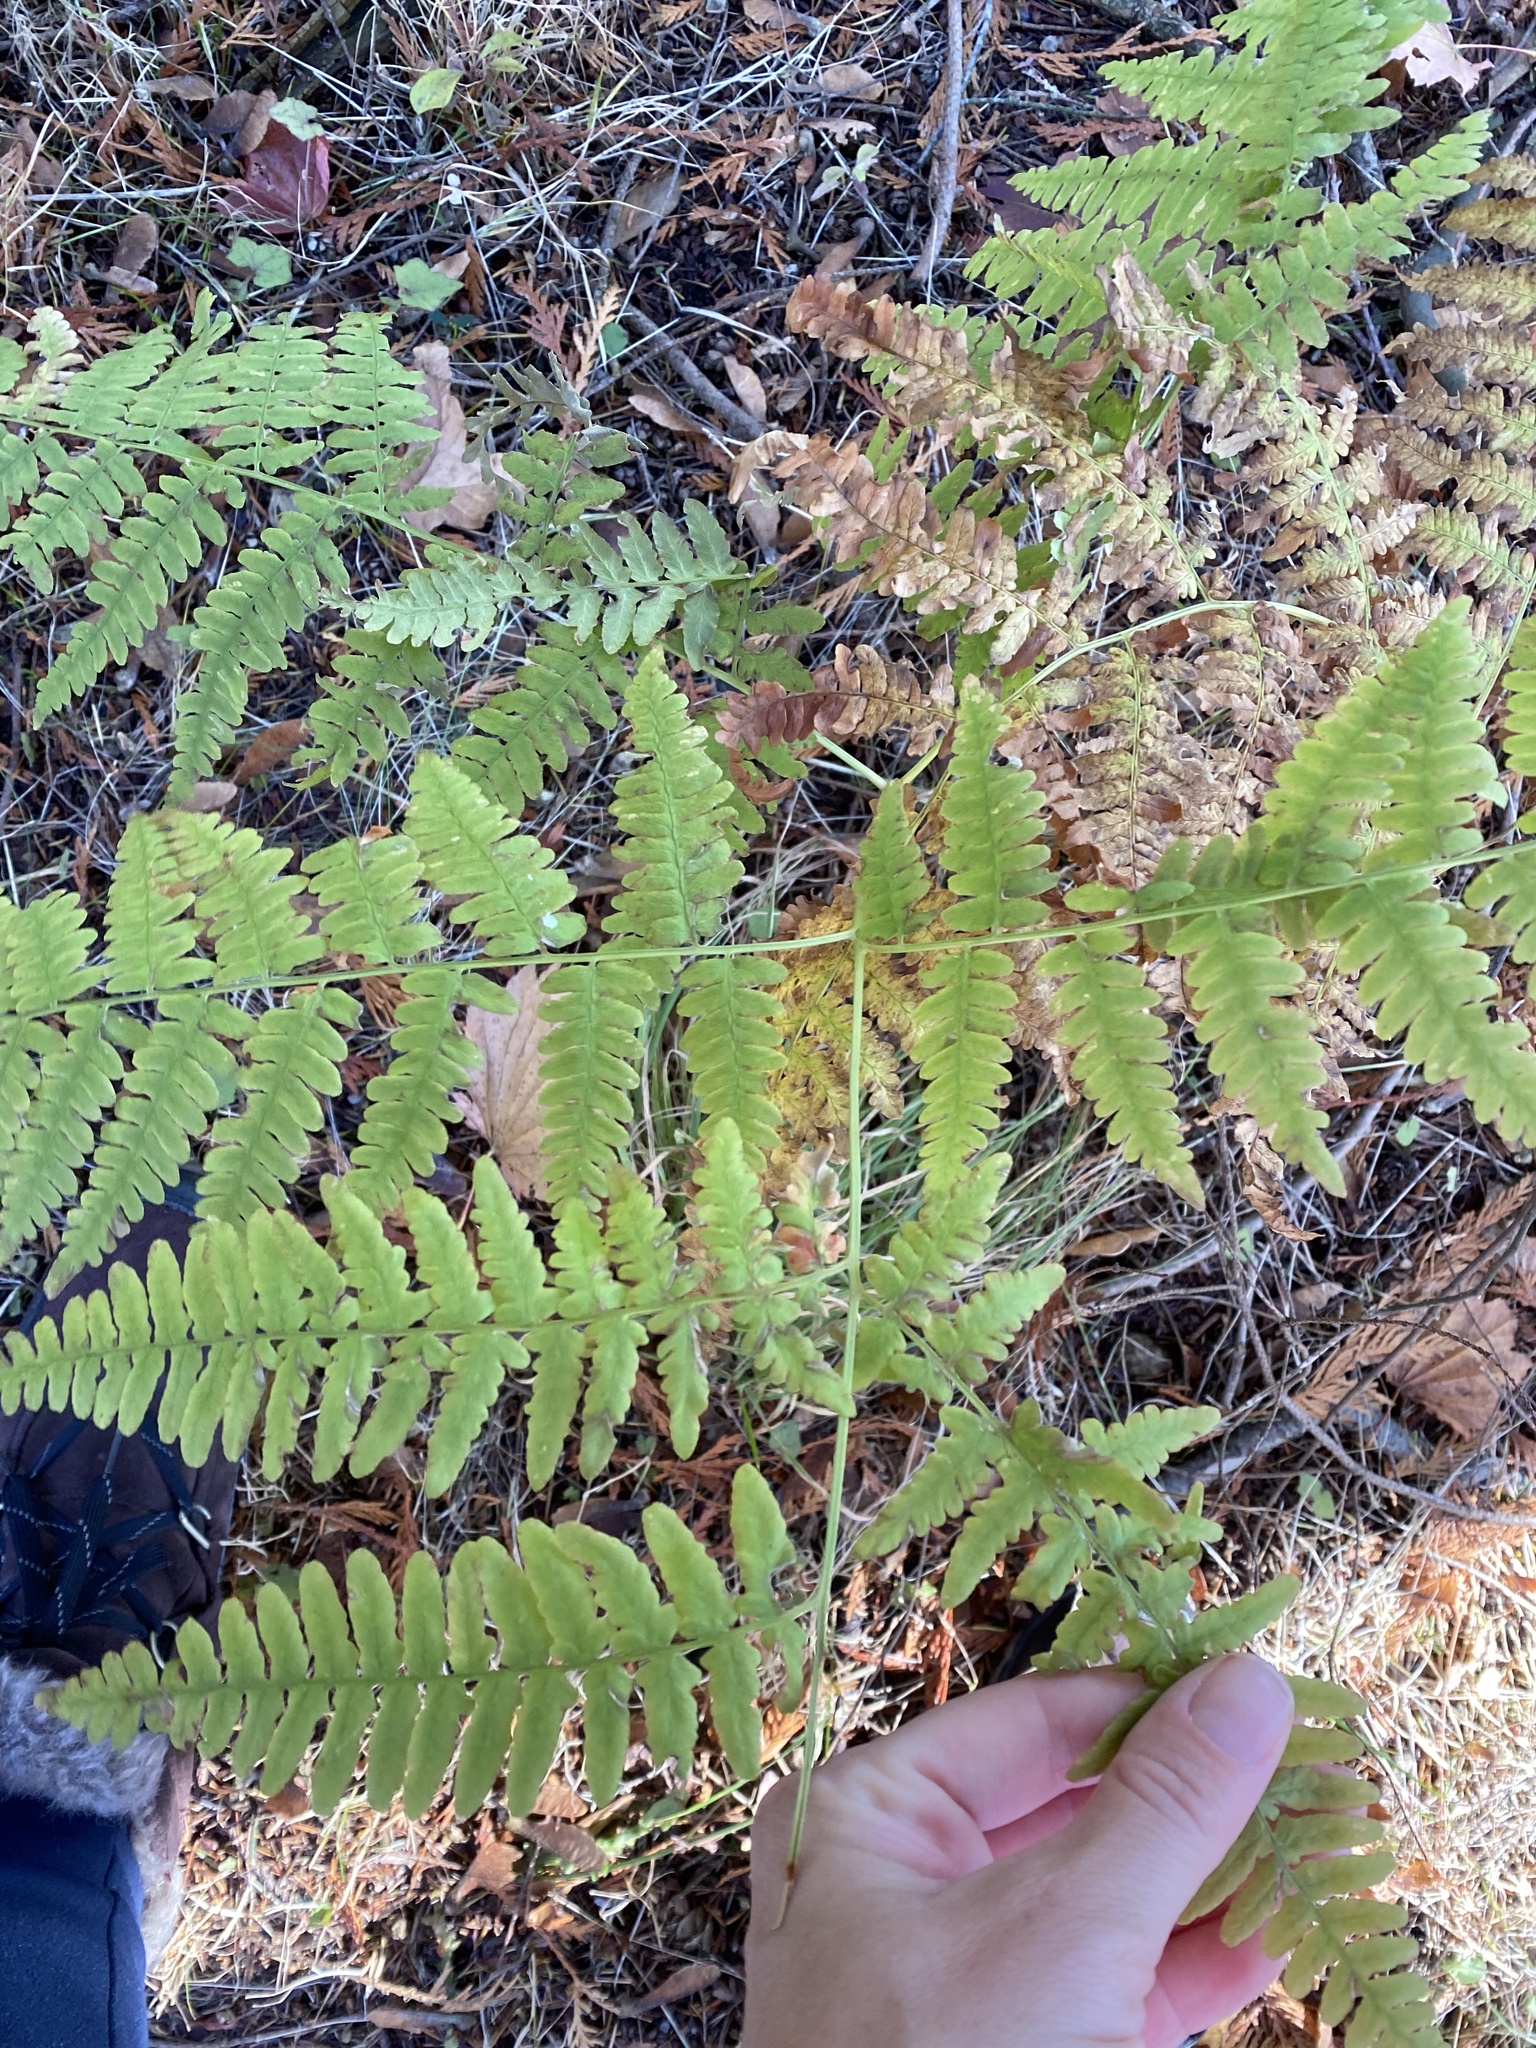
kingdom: Plantae
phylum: Tracheophyta
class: Polypodiopsida
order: Polypodiales
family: Dennstaedtiaceae
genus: Pteridium
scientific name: Pteridium aquilinum
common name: Bracken
